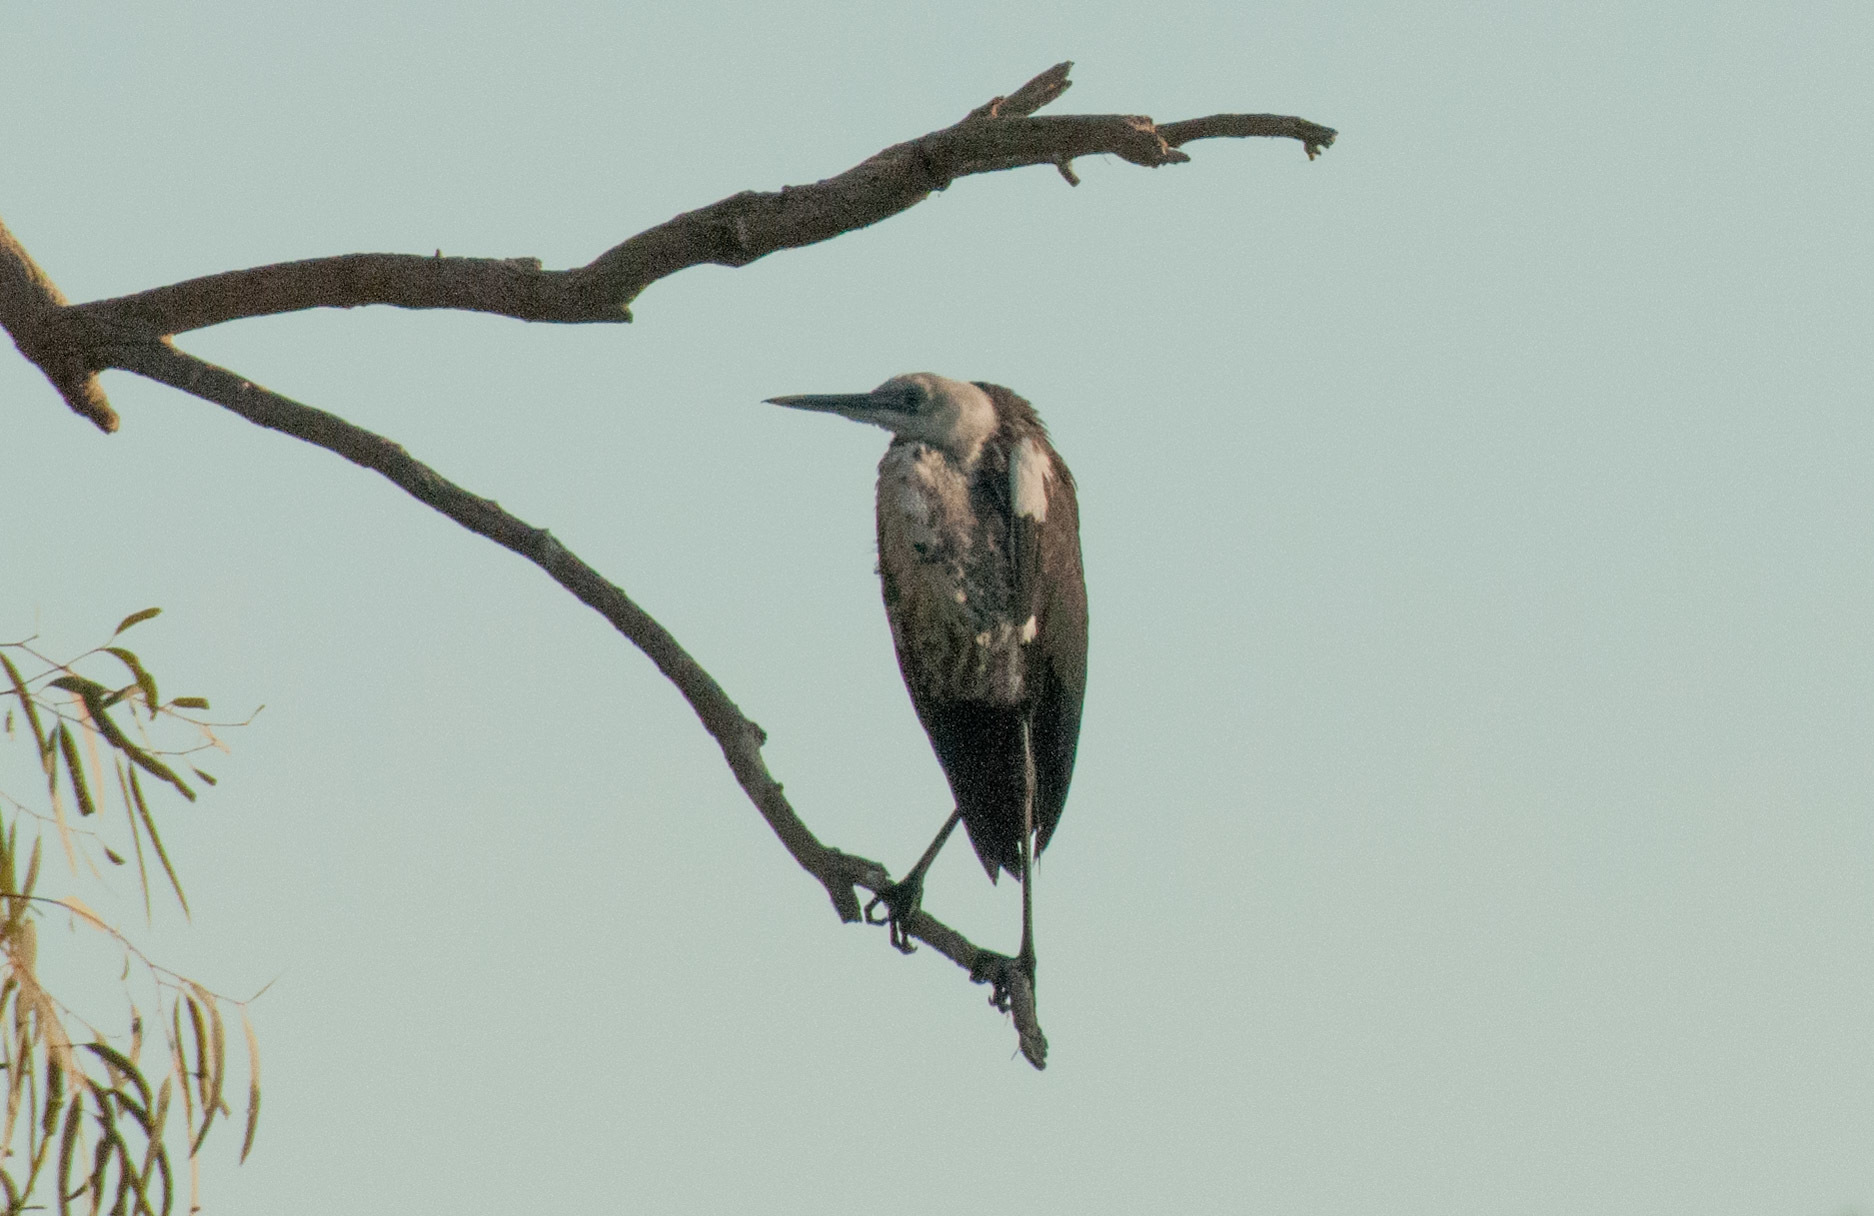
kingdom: Animalia
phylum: Chordata
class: Aves
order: Pelecaniformes
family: Ardeidae
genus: Ardea
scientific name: Ardea pacifica
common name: White-necked heron
